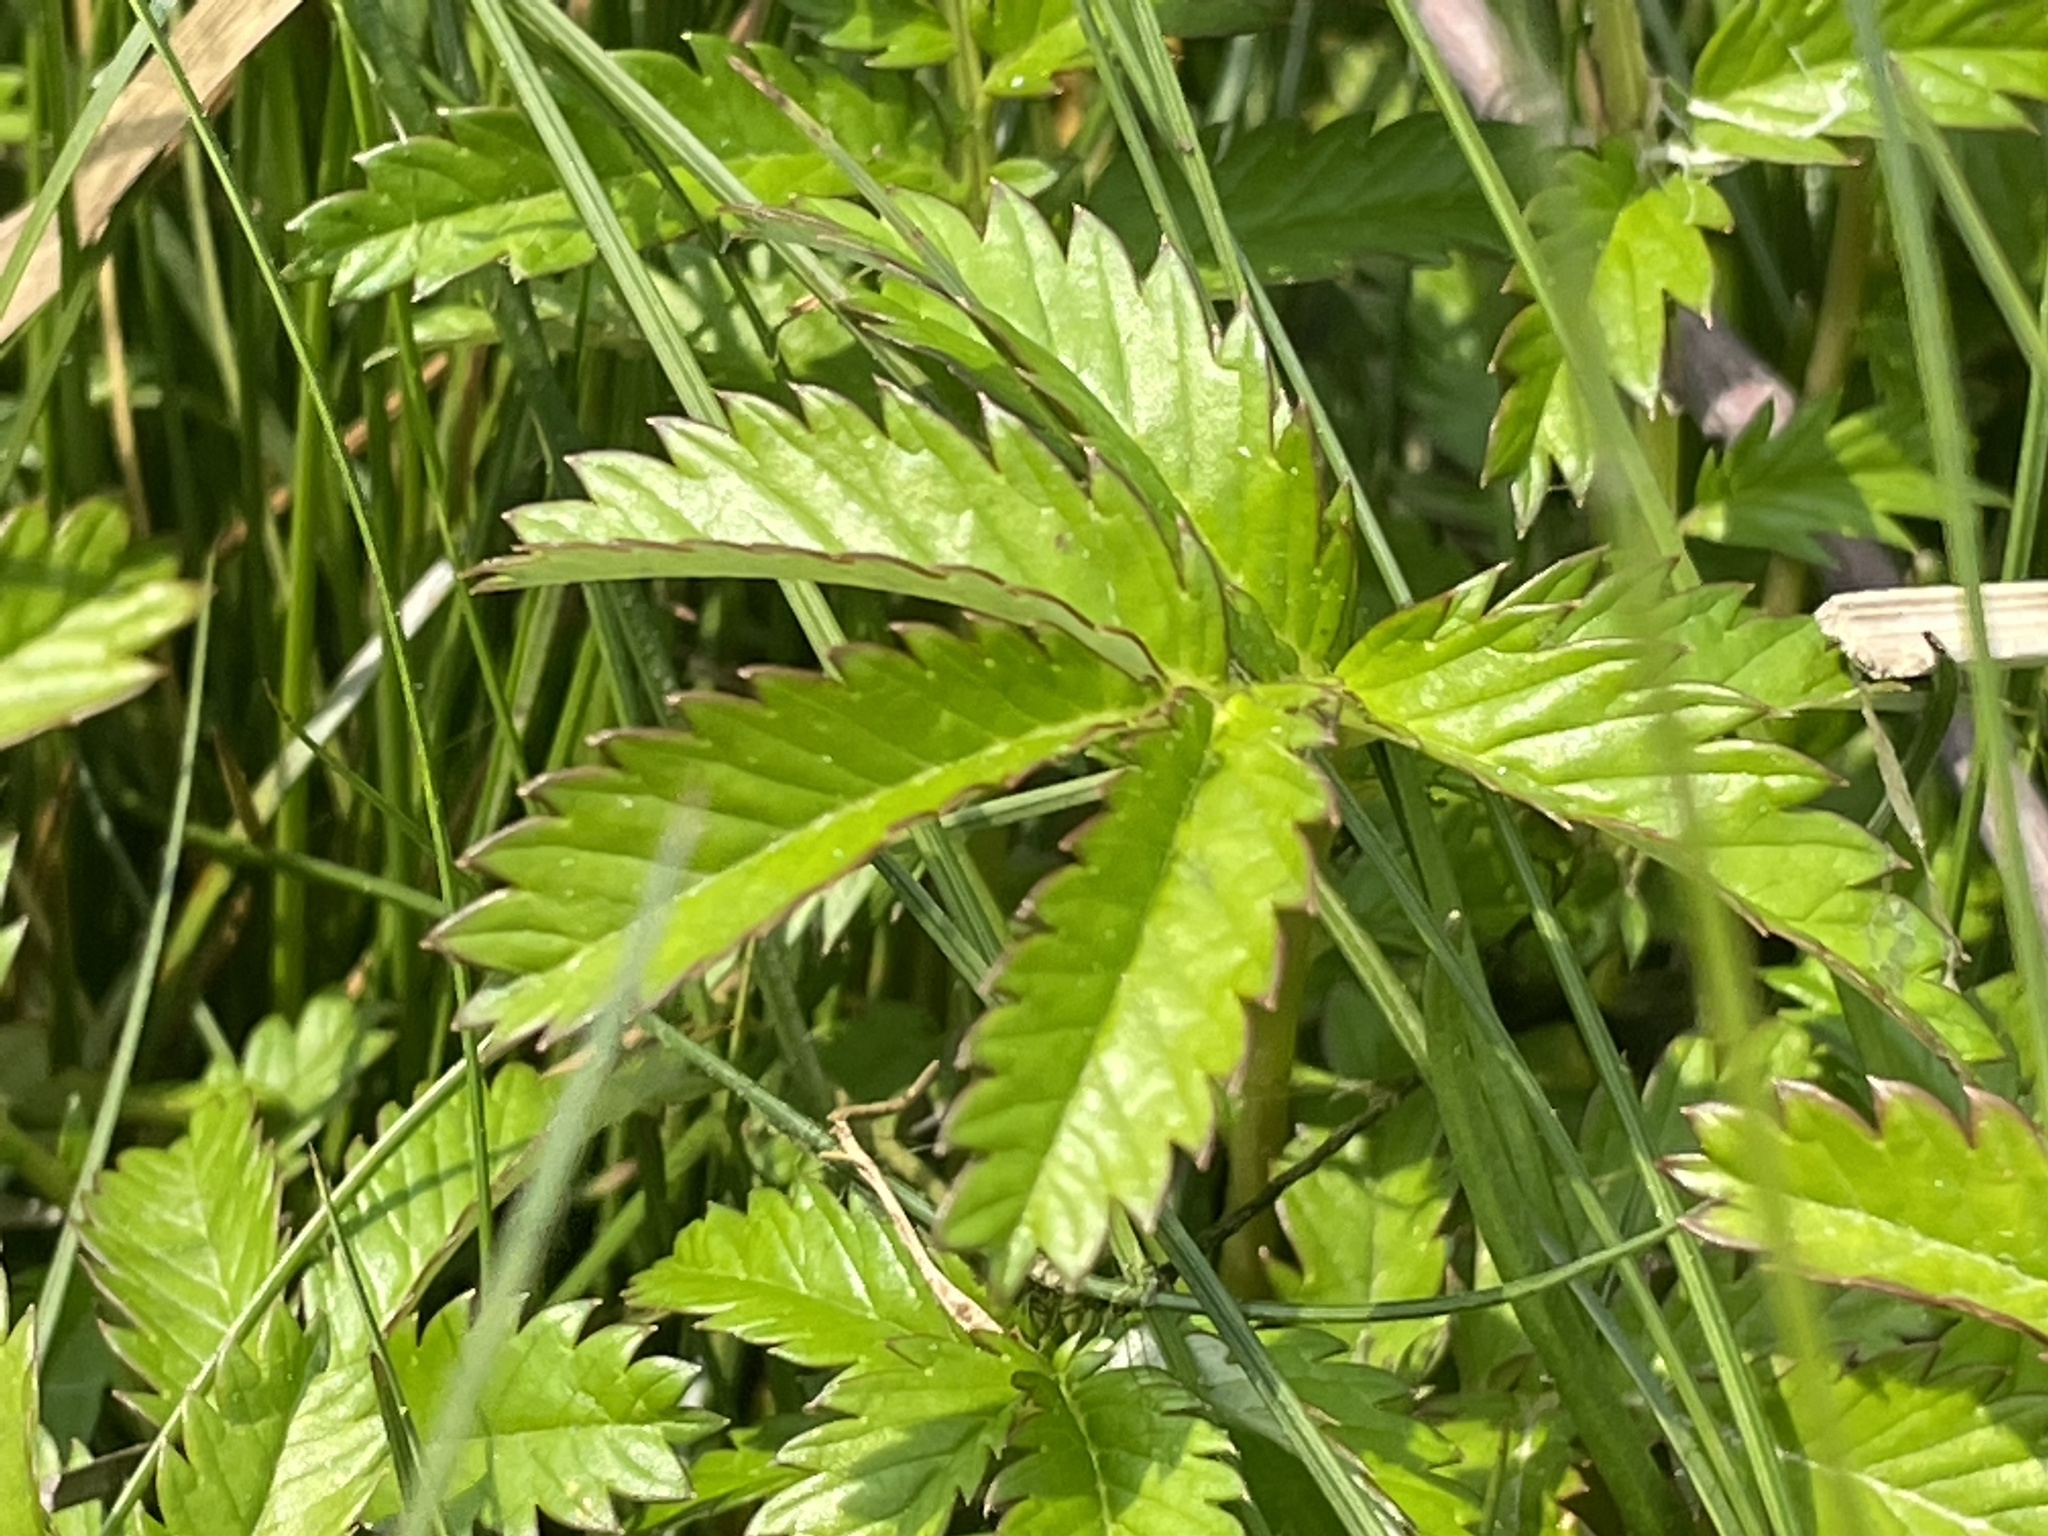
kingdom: Plantae
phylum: Tracheophyta
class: Magnoliopsida
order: Rosales
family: Rosaceae
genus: Argentina
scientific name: Argentina anserina
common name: Common silverweed
